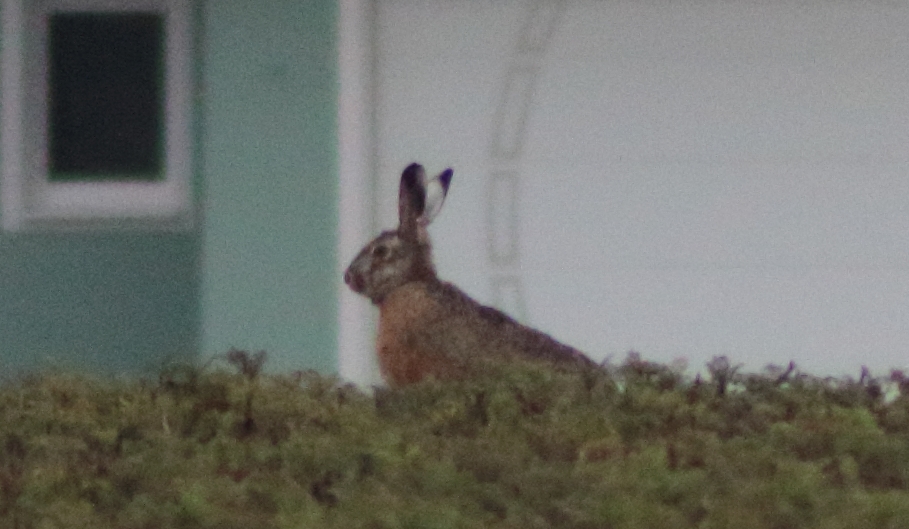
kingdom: Animalia
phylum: Chordata
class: Mammalia
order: Lagomorpha
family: Leporidae
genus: Lepus
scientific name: Lepus europaeus
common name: European hare
